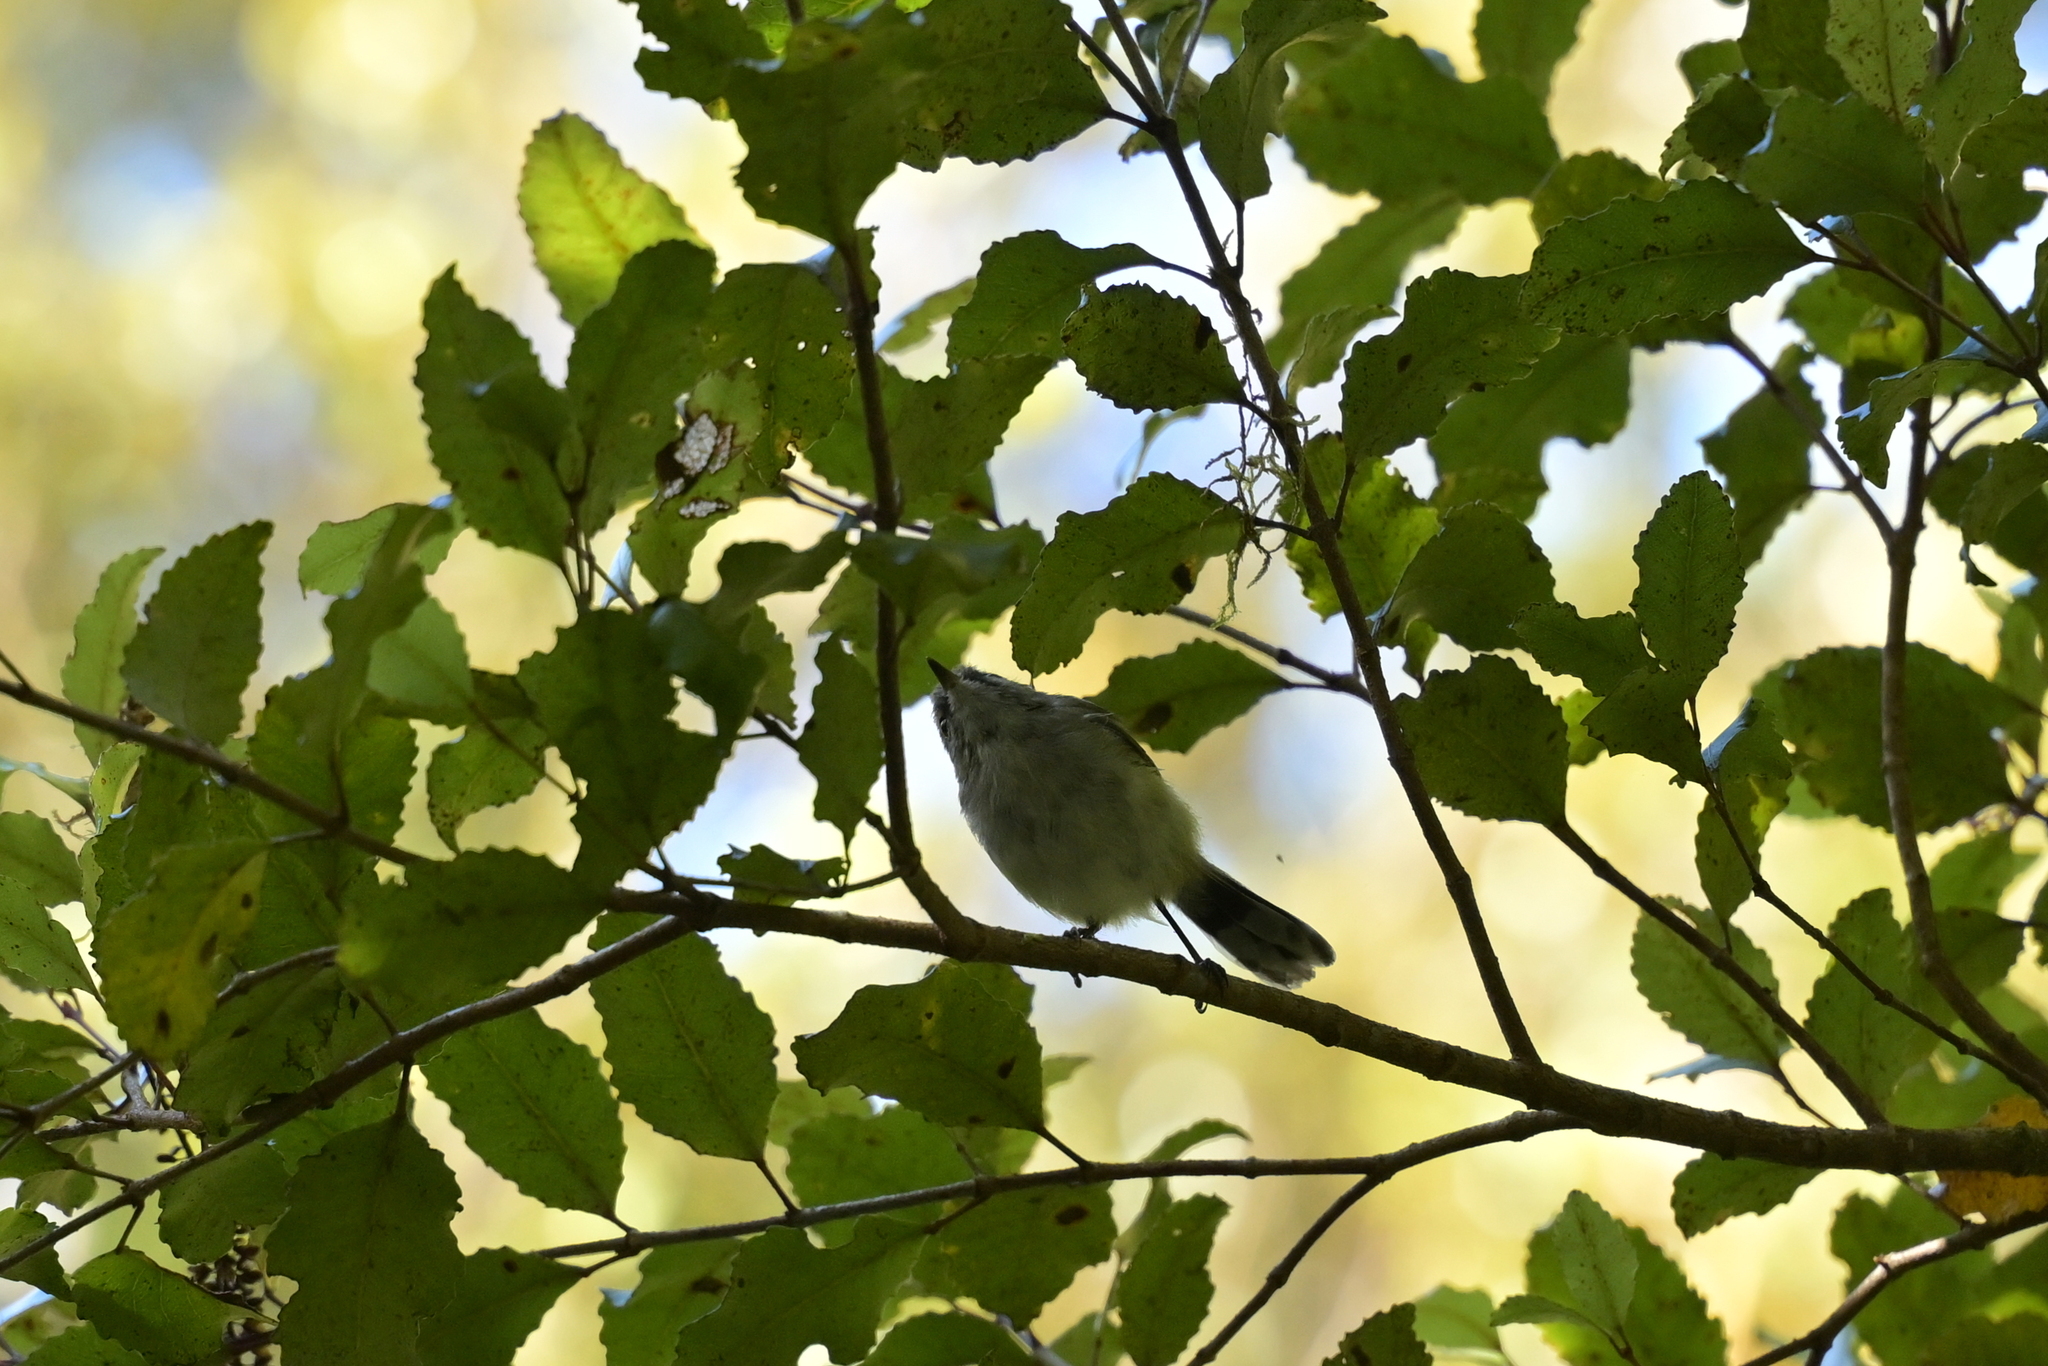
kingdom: Animalia
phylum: Chordata
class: Aves
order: Passeriformes
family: Acanthizidae
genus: Gerygone
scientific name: Gerygone igata
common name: Grey gerygone
